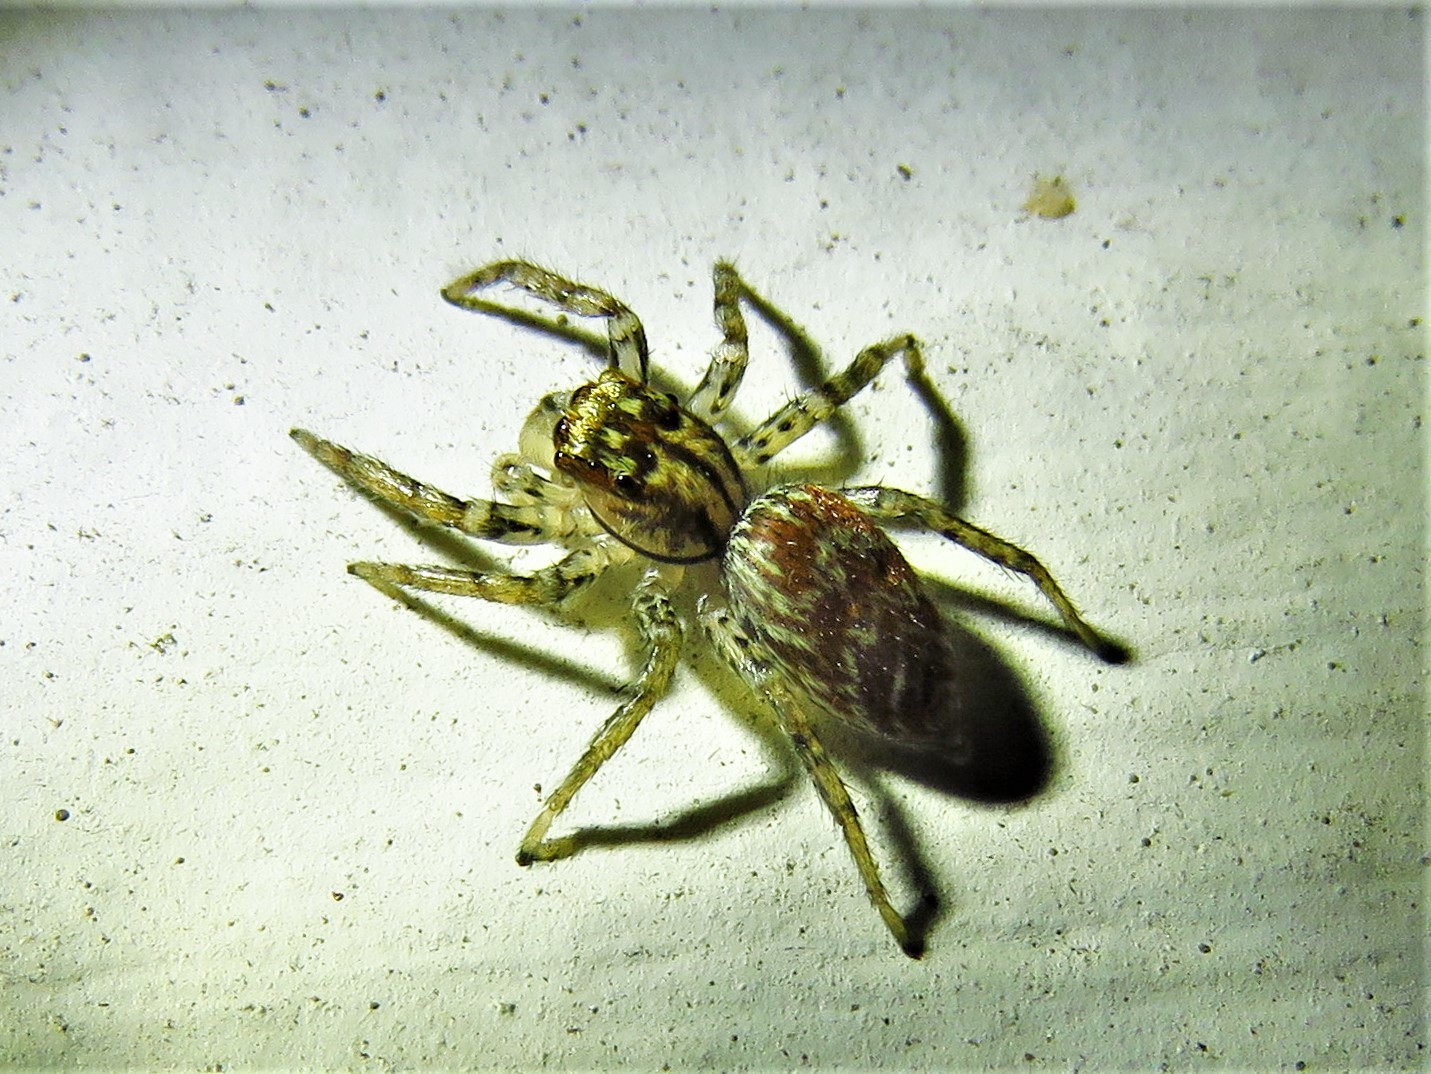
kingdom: Animalia
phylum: Arthropoda
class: Arachnida
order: Araneae
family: Salticidae
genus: Maevia
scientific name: Maevia inclemens
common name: Dimorphic jumper
